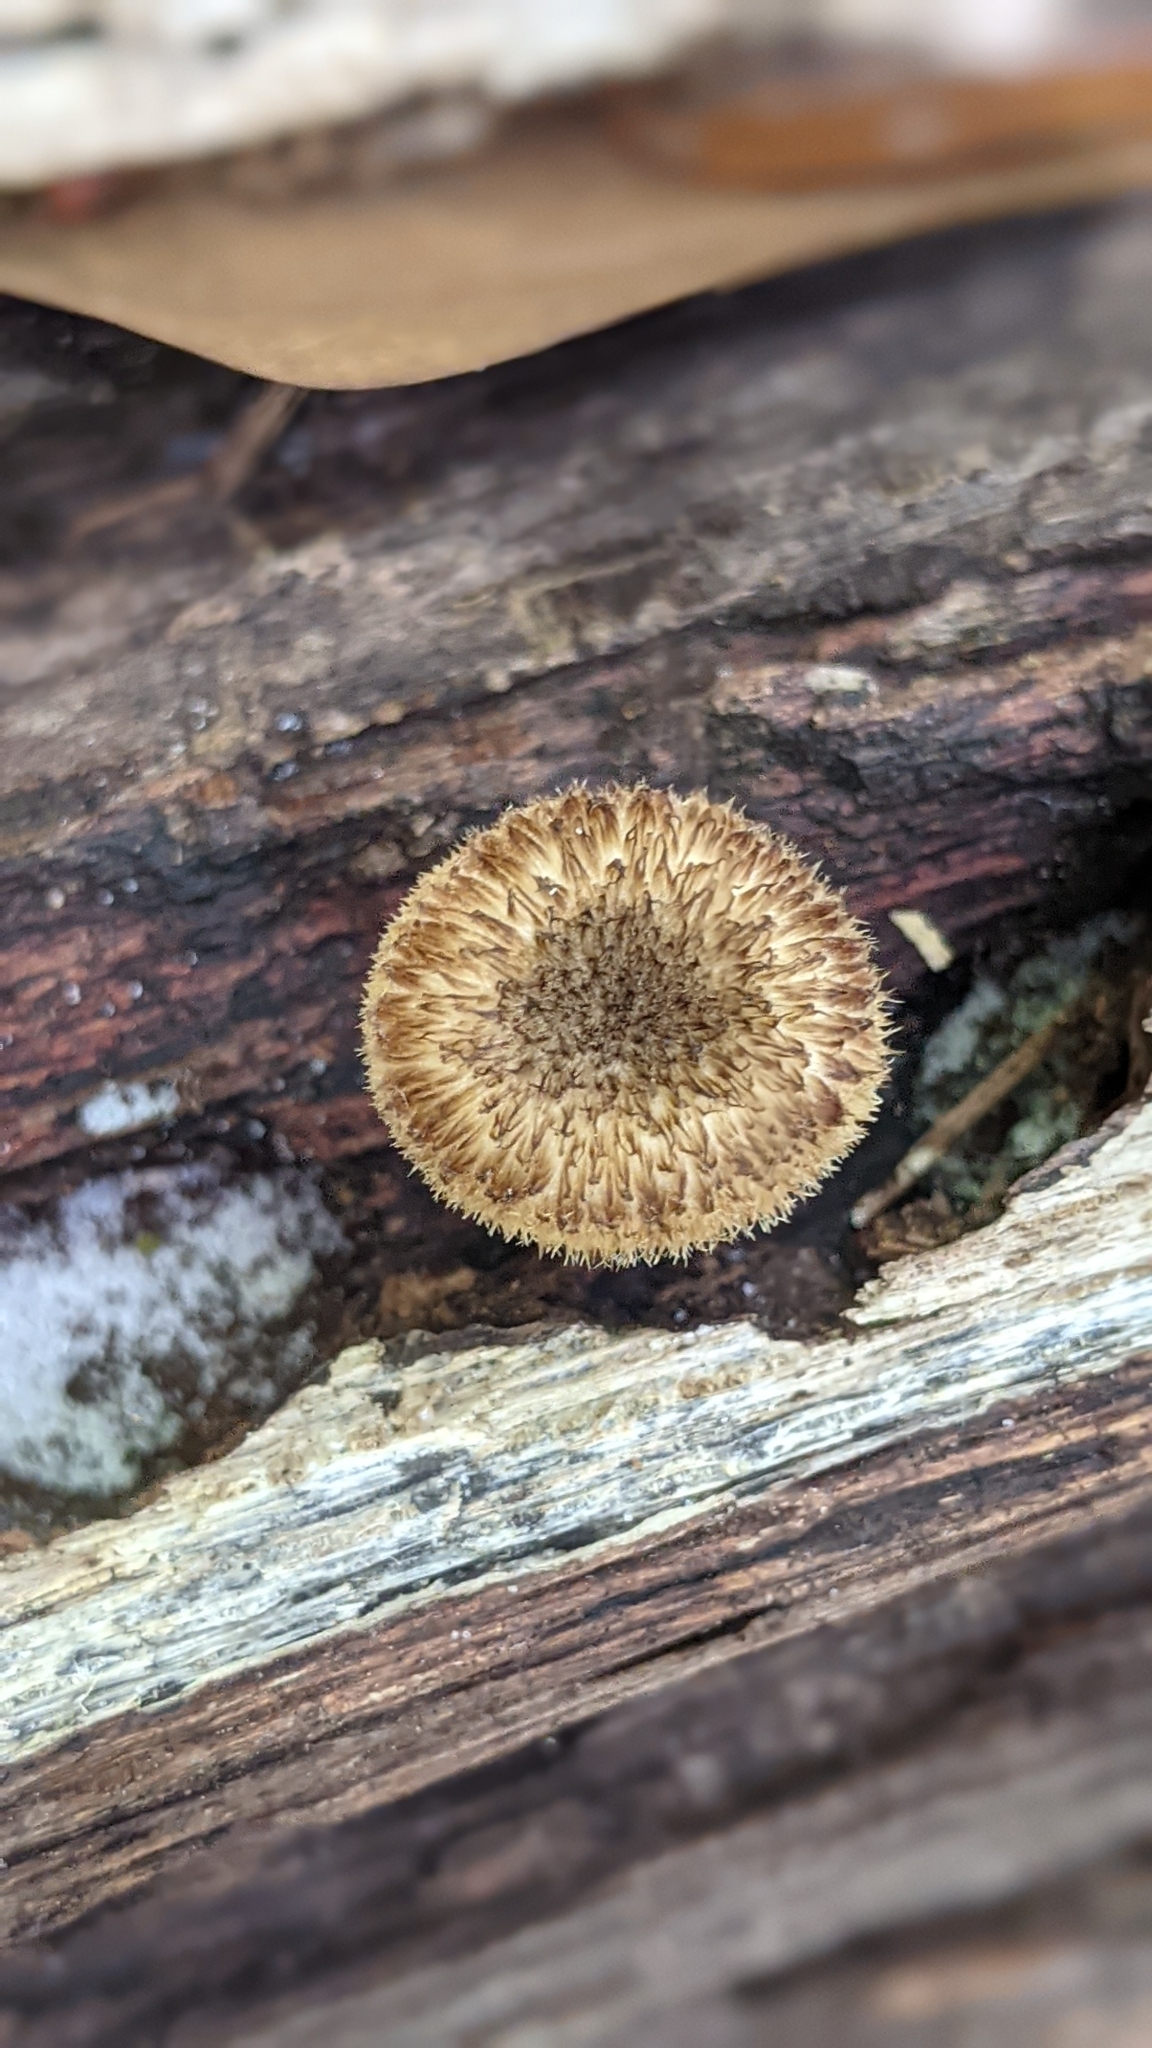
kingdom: Fungi
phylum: Basidiomycota
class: Agaricomycetes
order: Polyporales
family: Polyporaceae
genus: Lentinus
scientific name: Lentinus crinitus
